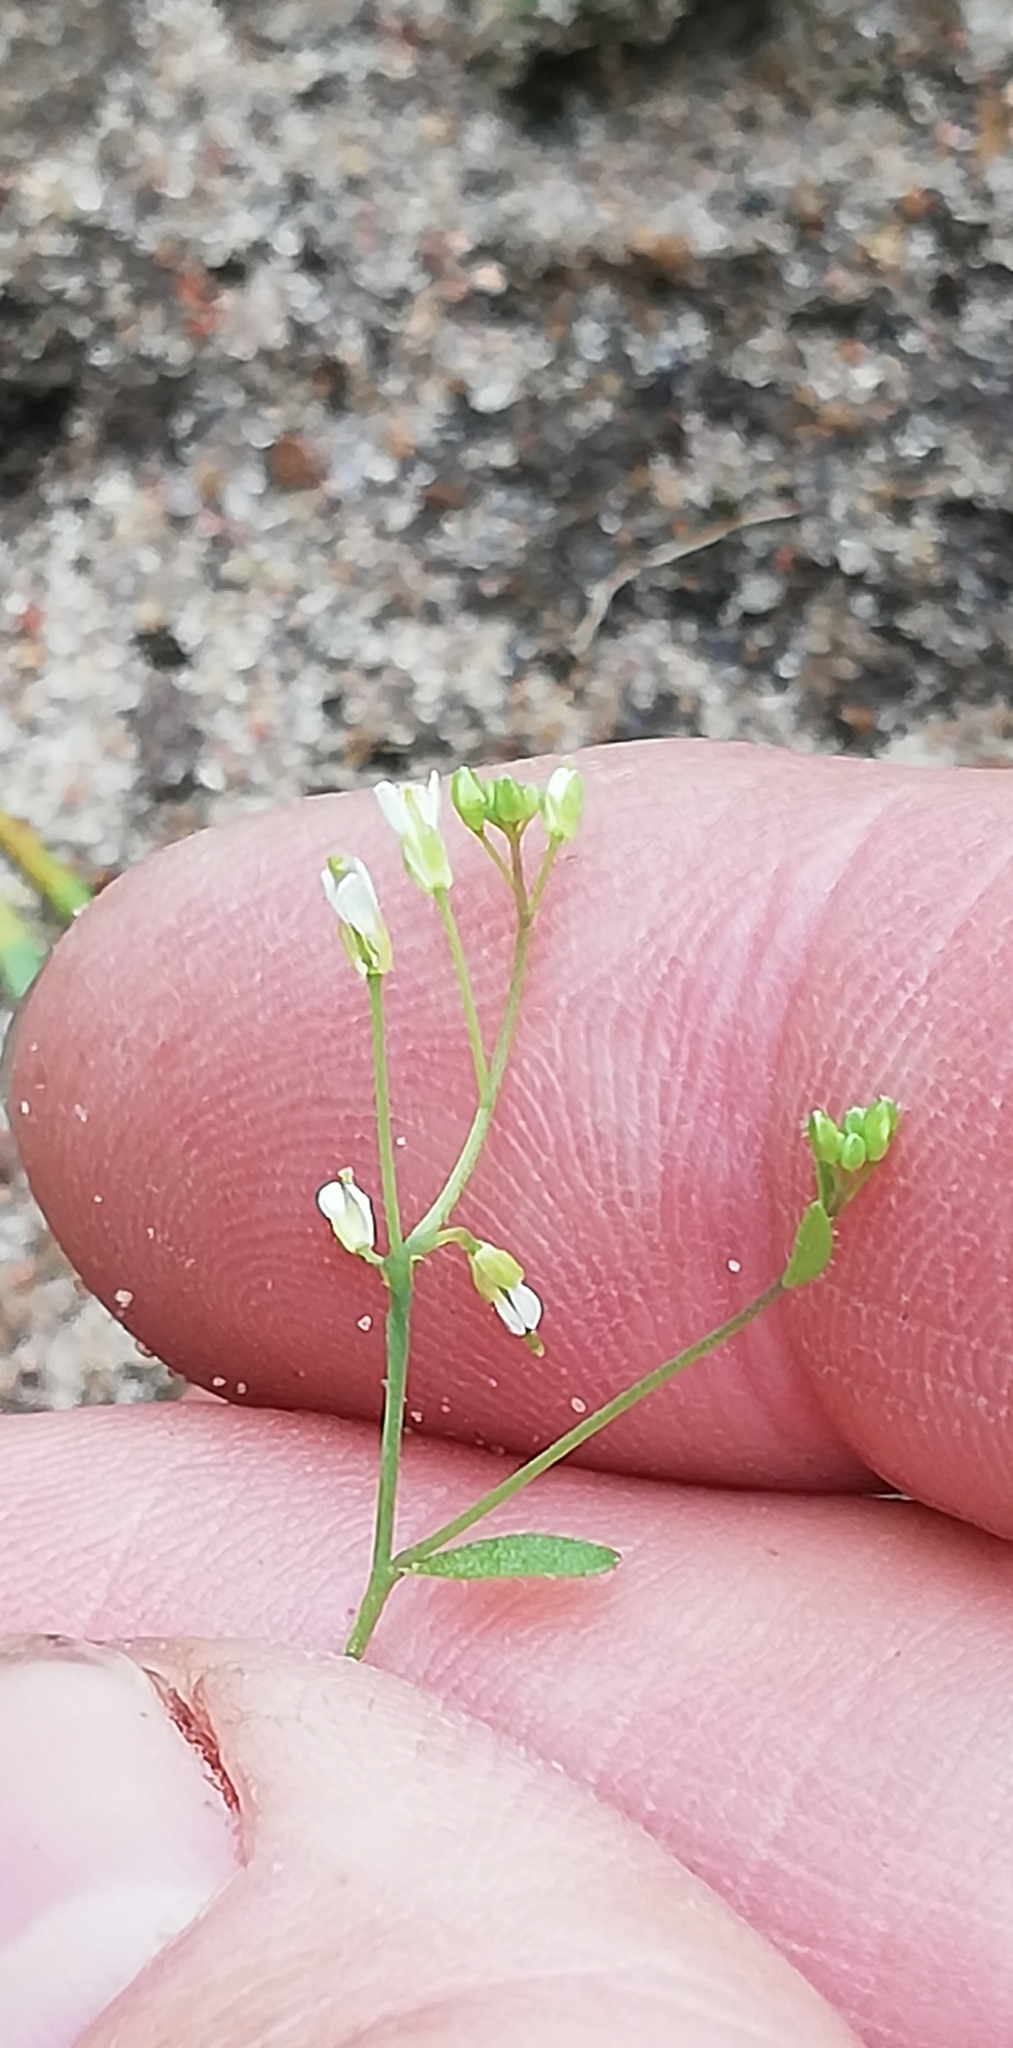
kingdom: Plantae
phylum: Tracheophyta
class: Magnoliopsida
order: Brassicales
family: Brassicaceae
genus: Arabidopsis
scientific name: Arabidopsis thaliana
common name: Thale cress
